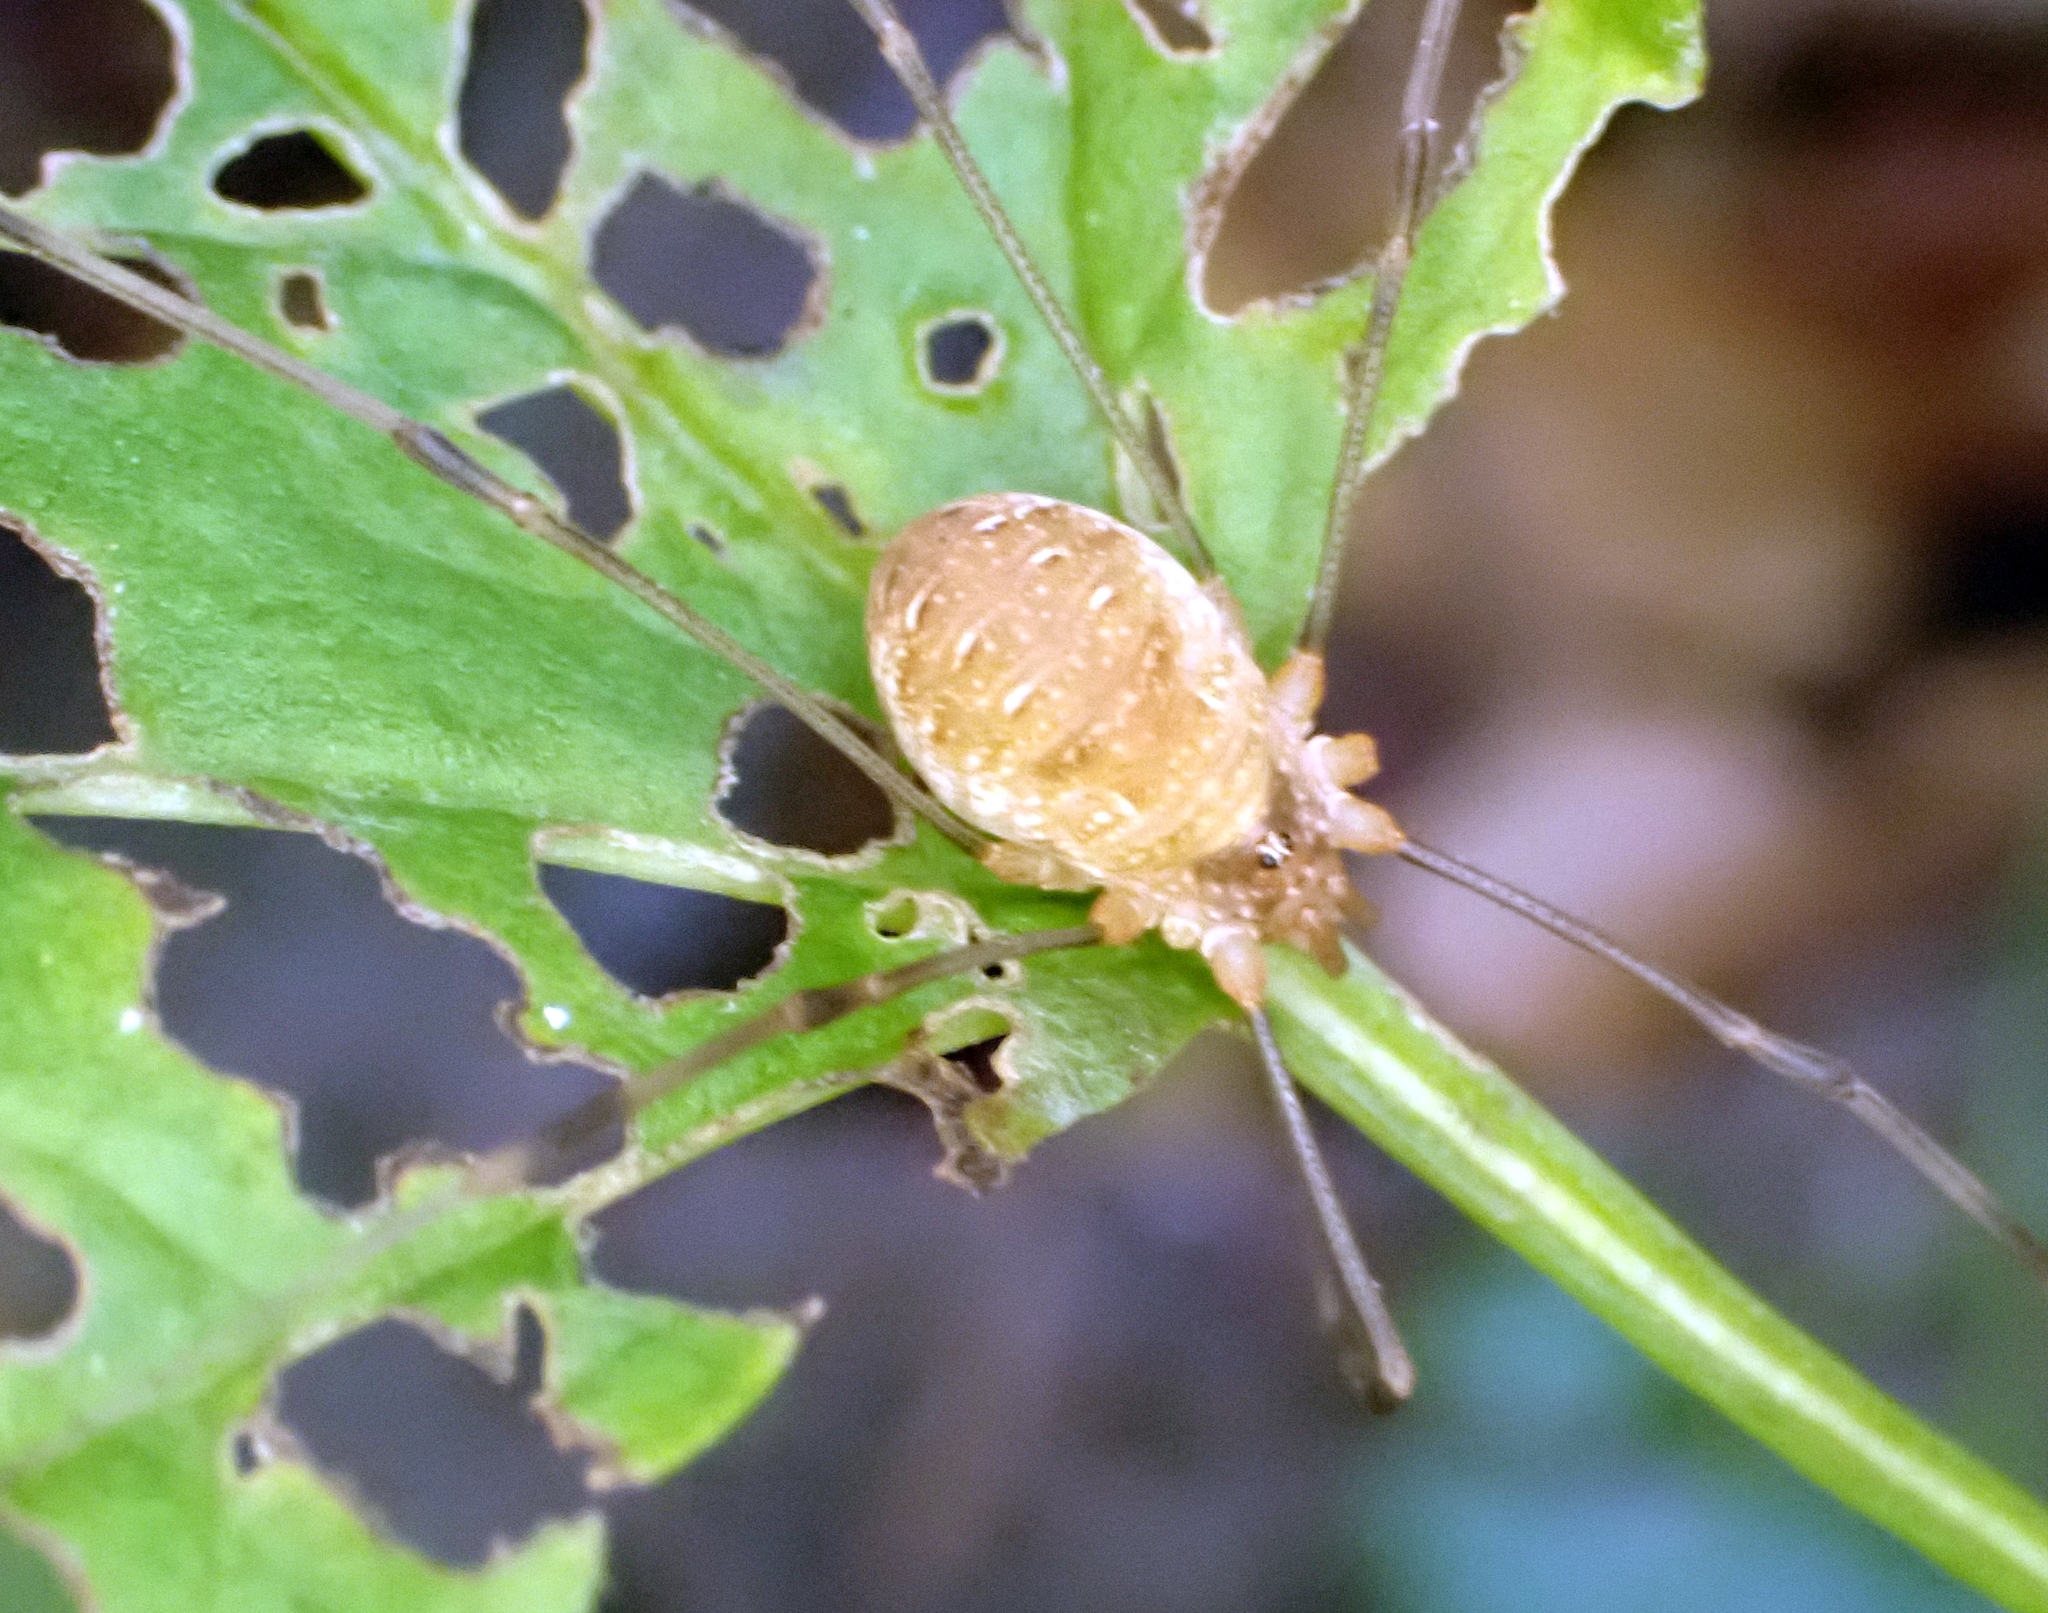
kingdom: Animalia
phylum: Arthropoda
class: Arachnida
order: Opiliones
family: Phalangiidae
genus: Opilio
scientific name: Opilio canestrinii
